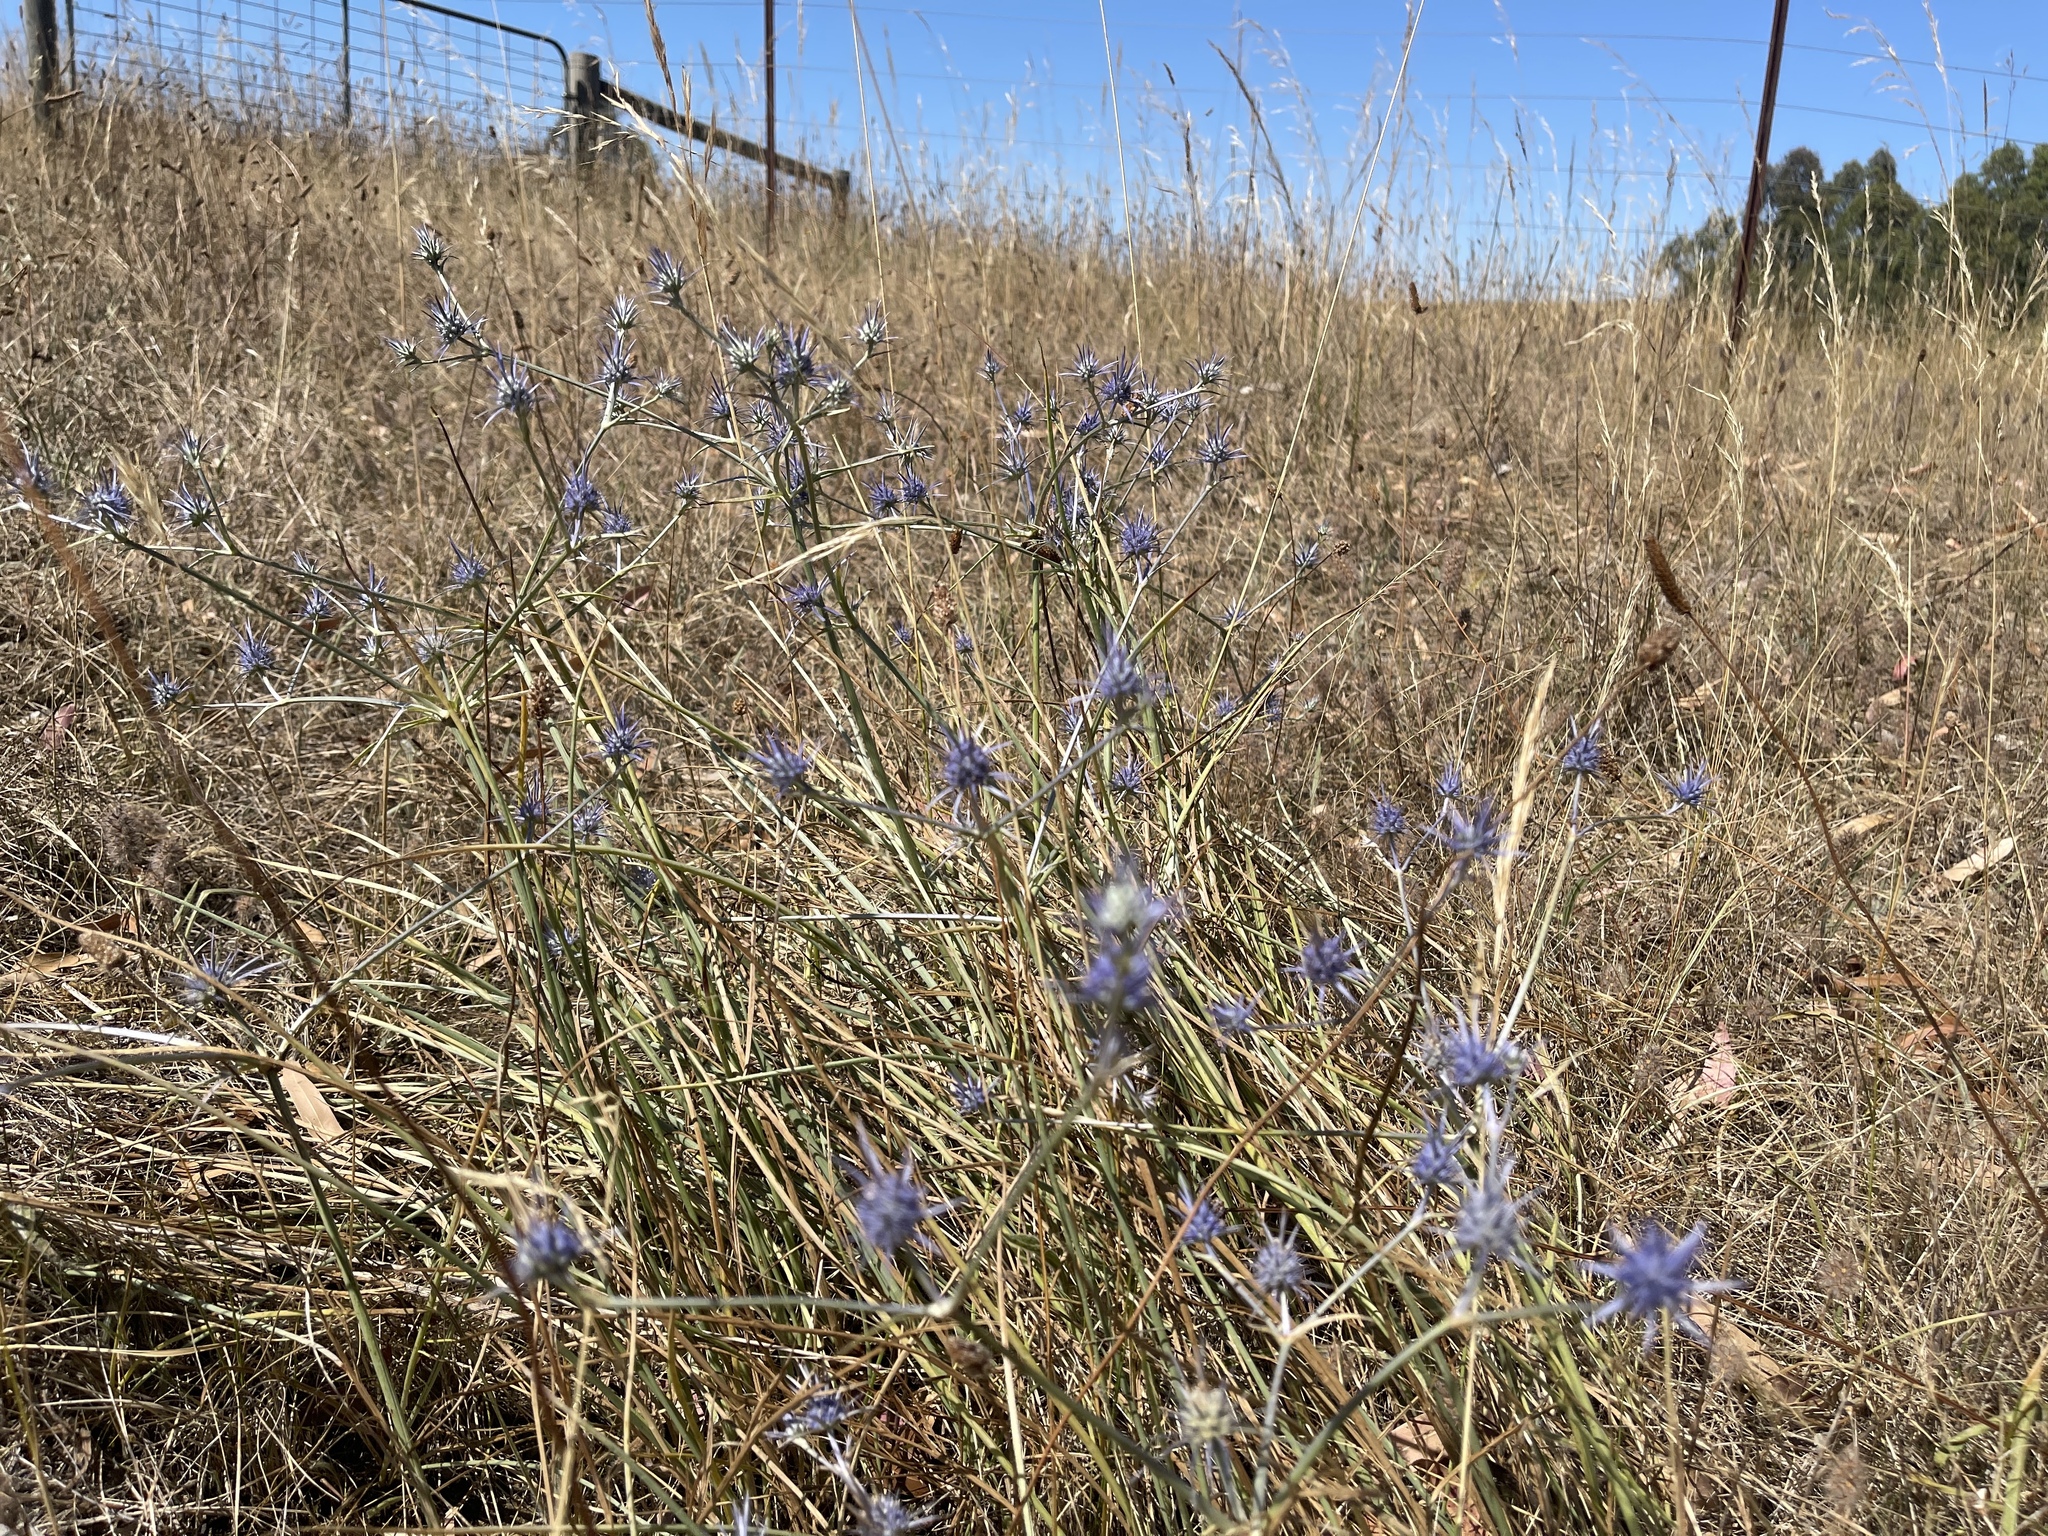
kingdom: Plantae
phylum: Tracheophyta
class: Magnoliopsida
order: Apiales
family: Apiaceae
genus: Eryngium
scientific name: Eryngium ovinum
